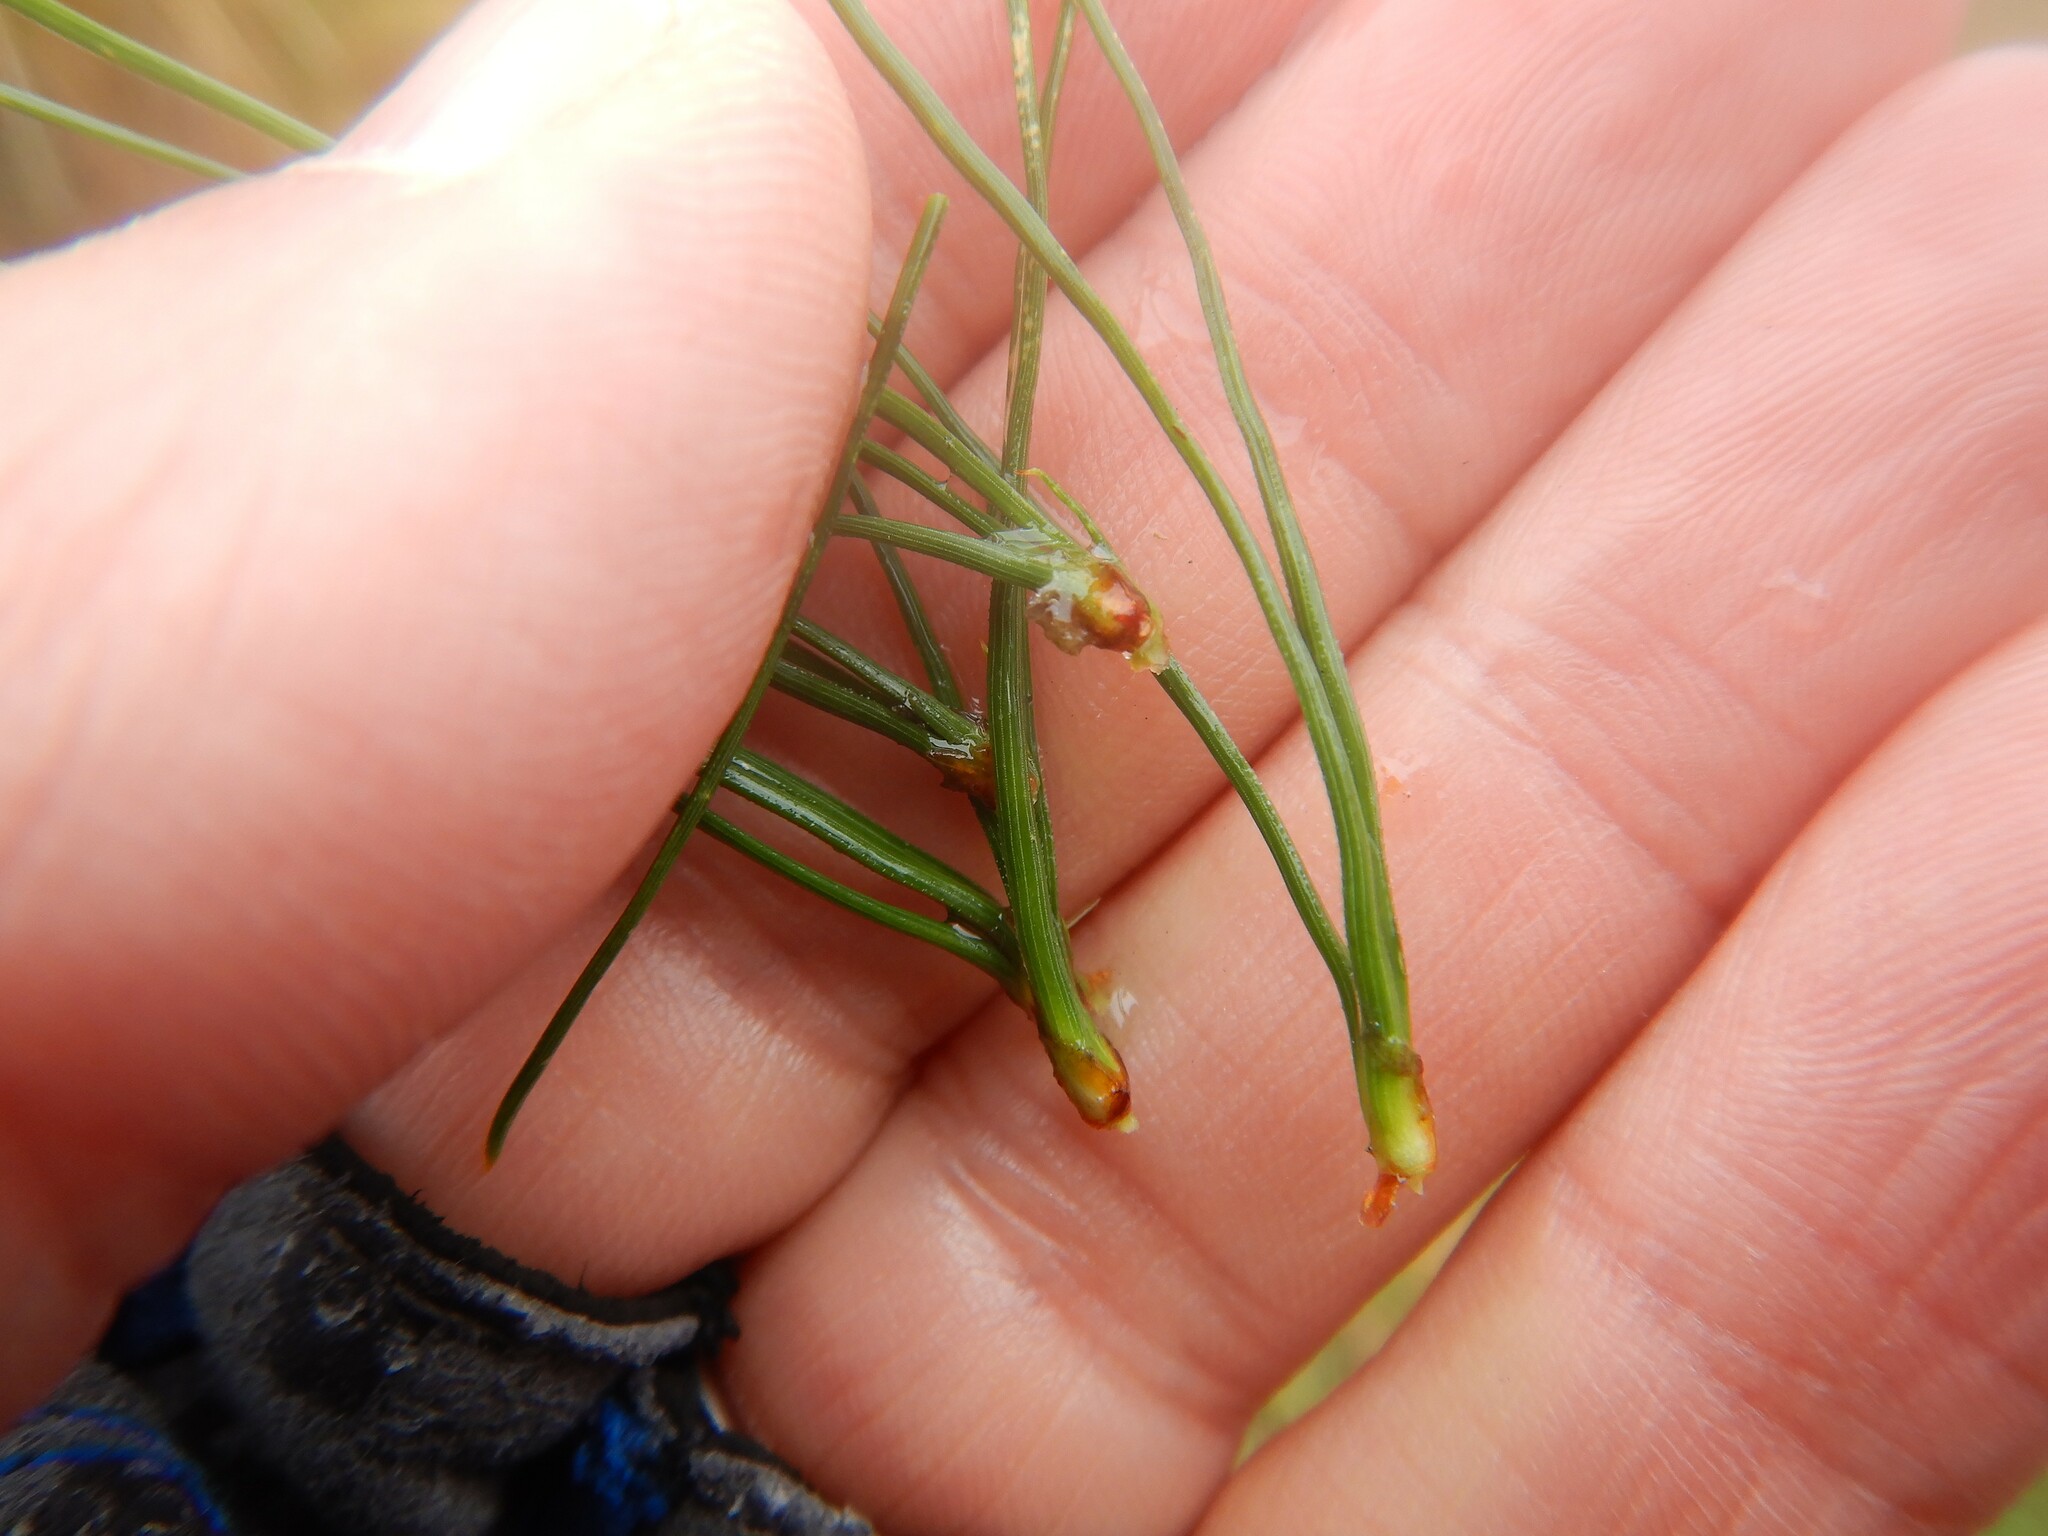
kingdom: Plantae
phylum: Tracheophyta
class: Pinopsida
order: Pinales
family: Pinaceae
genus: Pinus
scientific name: Pinus radiata
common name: Monterey pine
